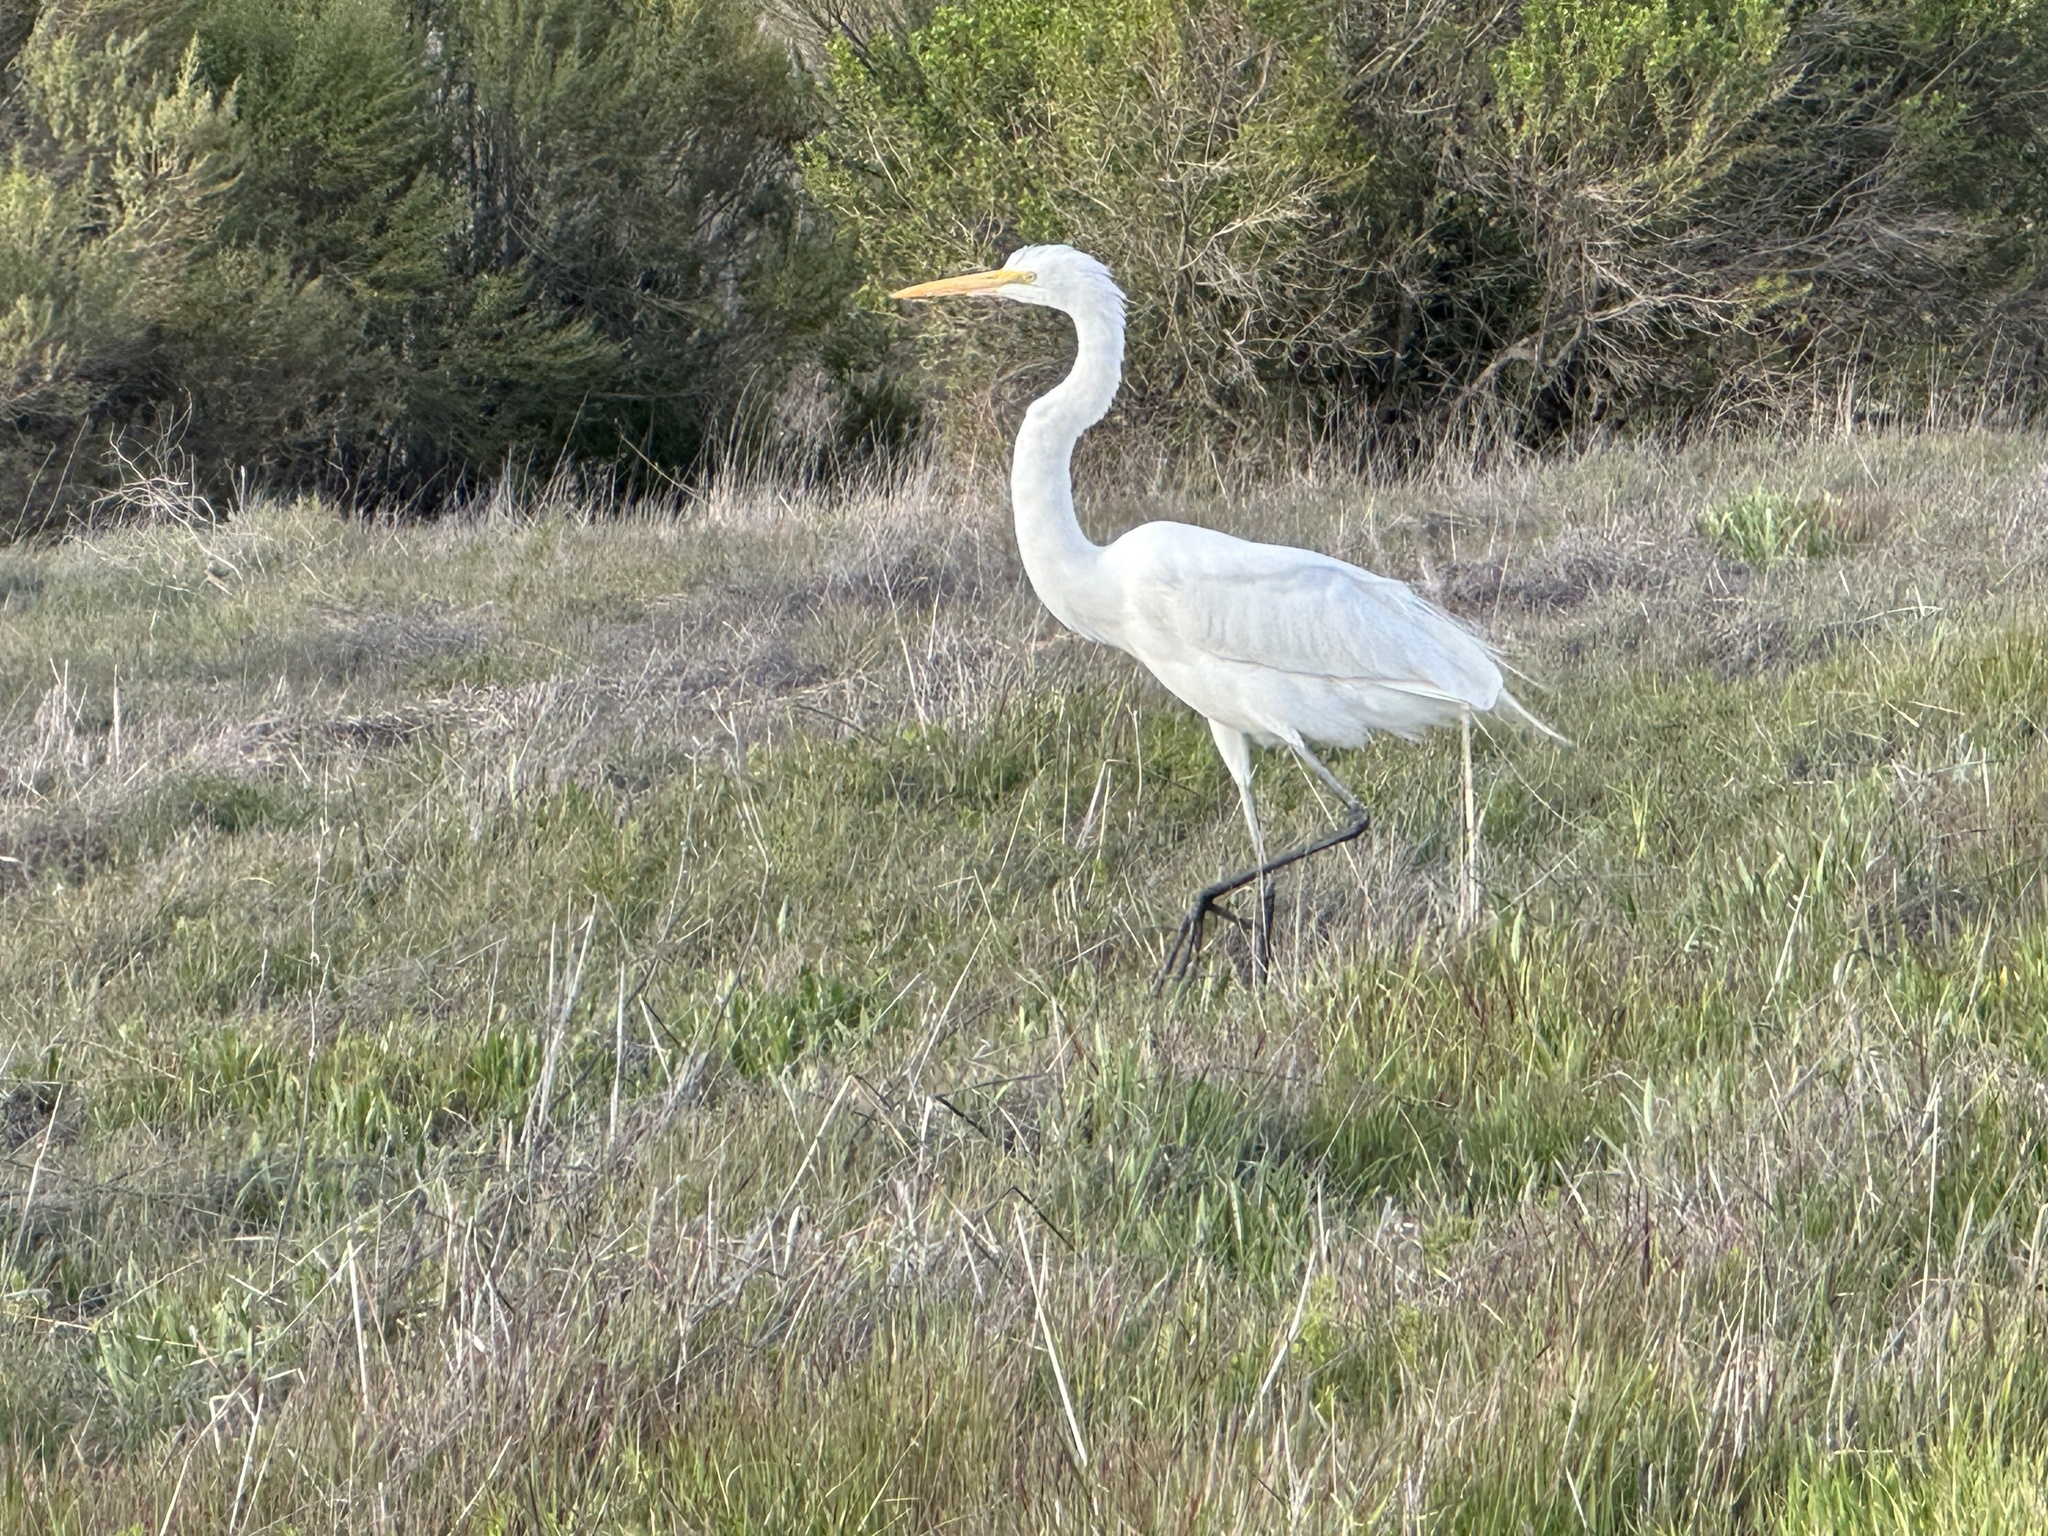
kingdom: Animalia
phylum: Chordata
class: Aves
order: Pelecaniformes
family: Ardeidae
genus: Ardea
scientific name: Ardea alba
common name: Great egret
